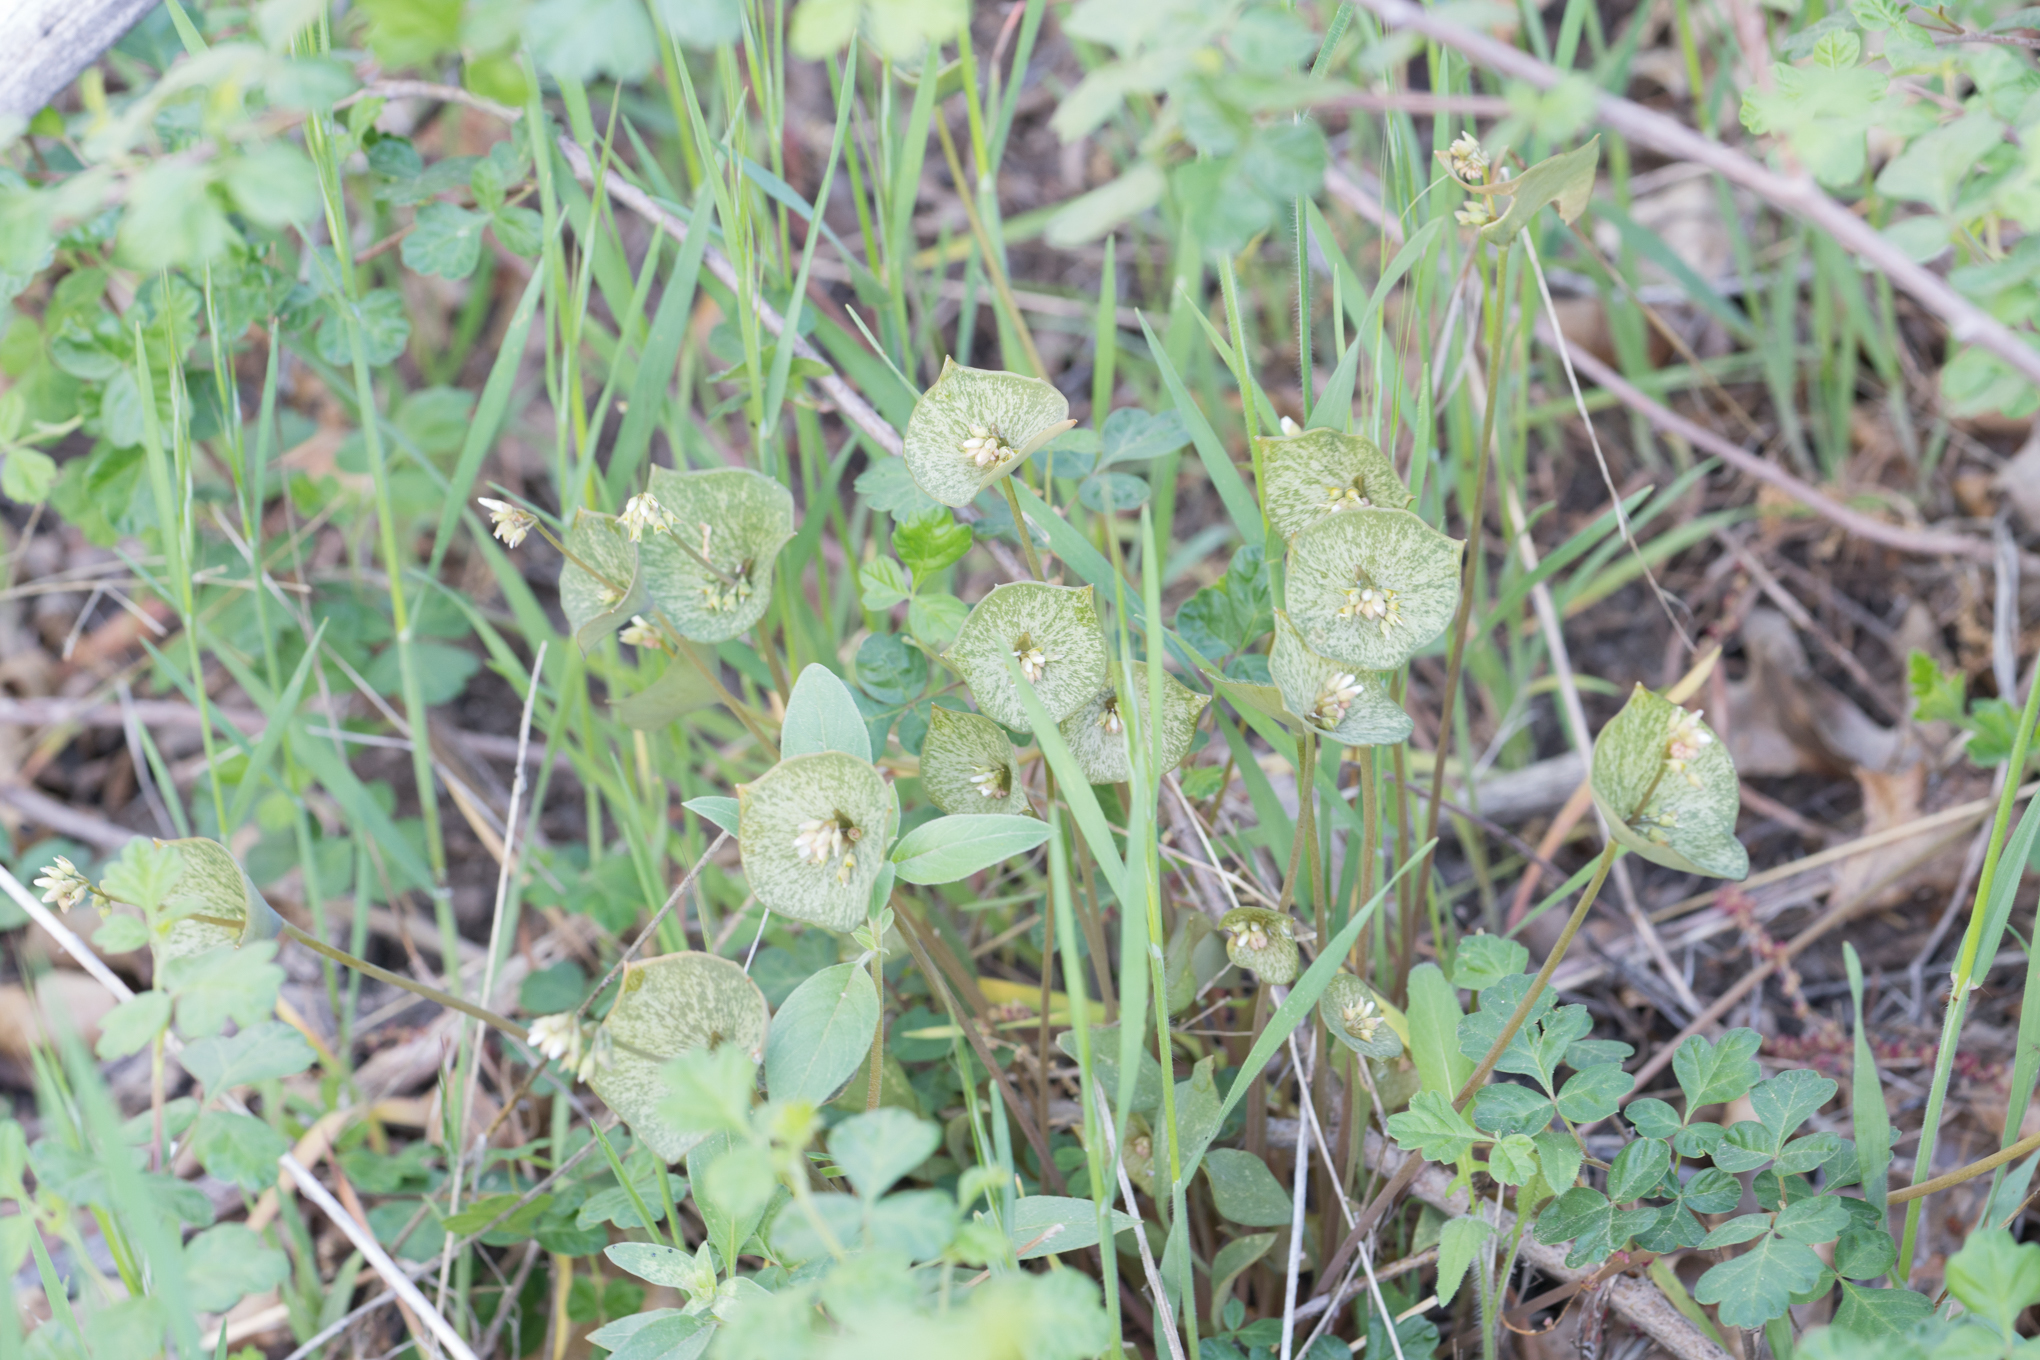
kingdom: Plantae
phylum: Tracheophyta
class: Magnoliopsida
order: Caryophyllales
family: Montiaceae
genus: Claytonia
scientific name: Claytonia perfoliata
